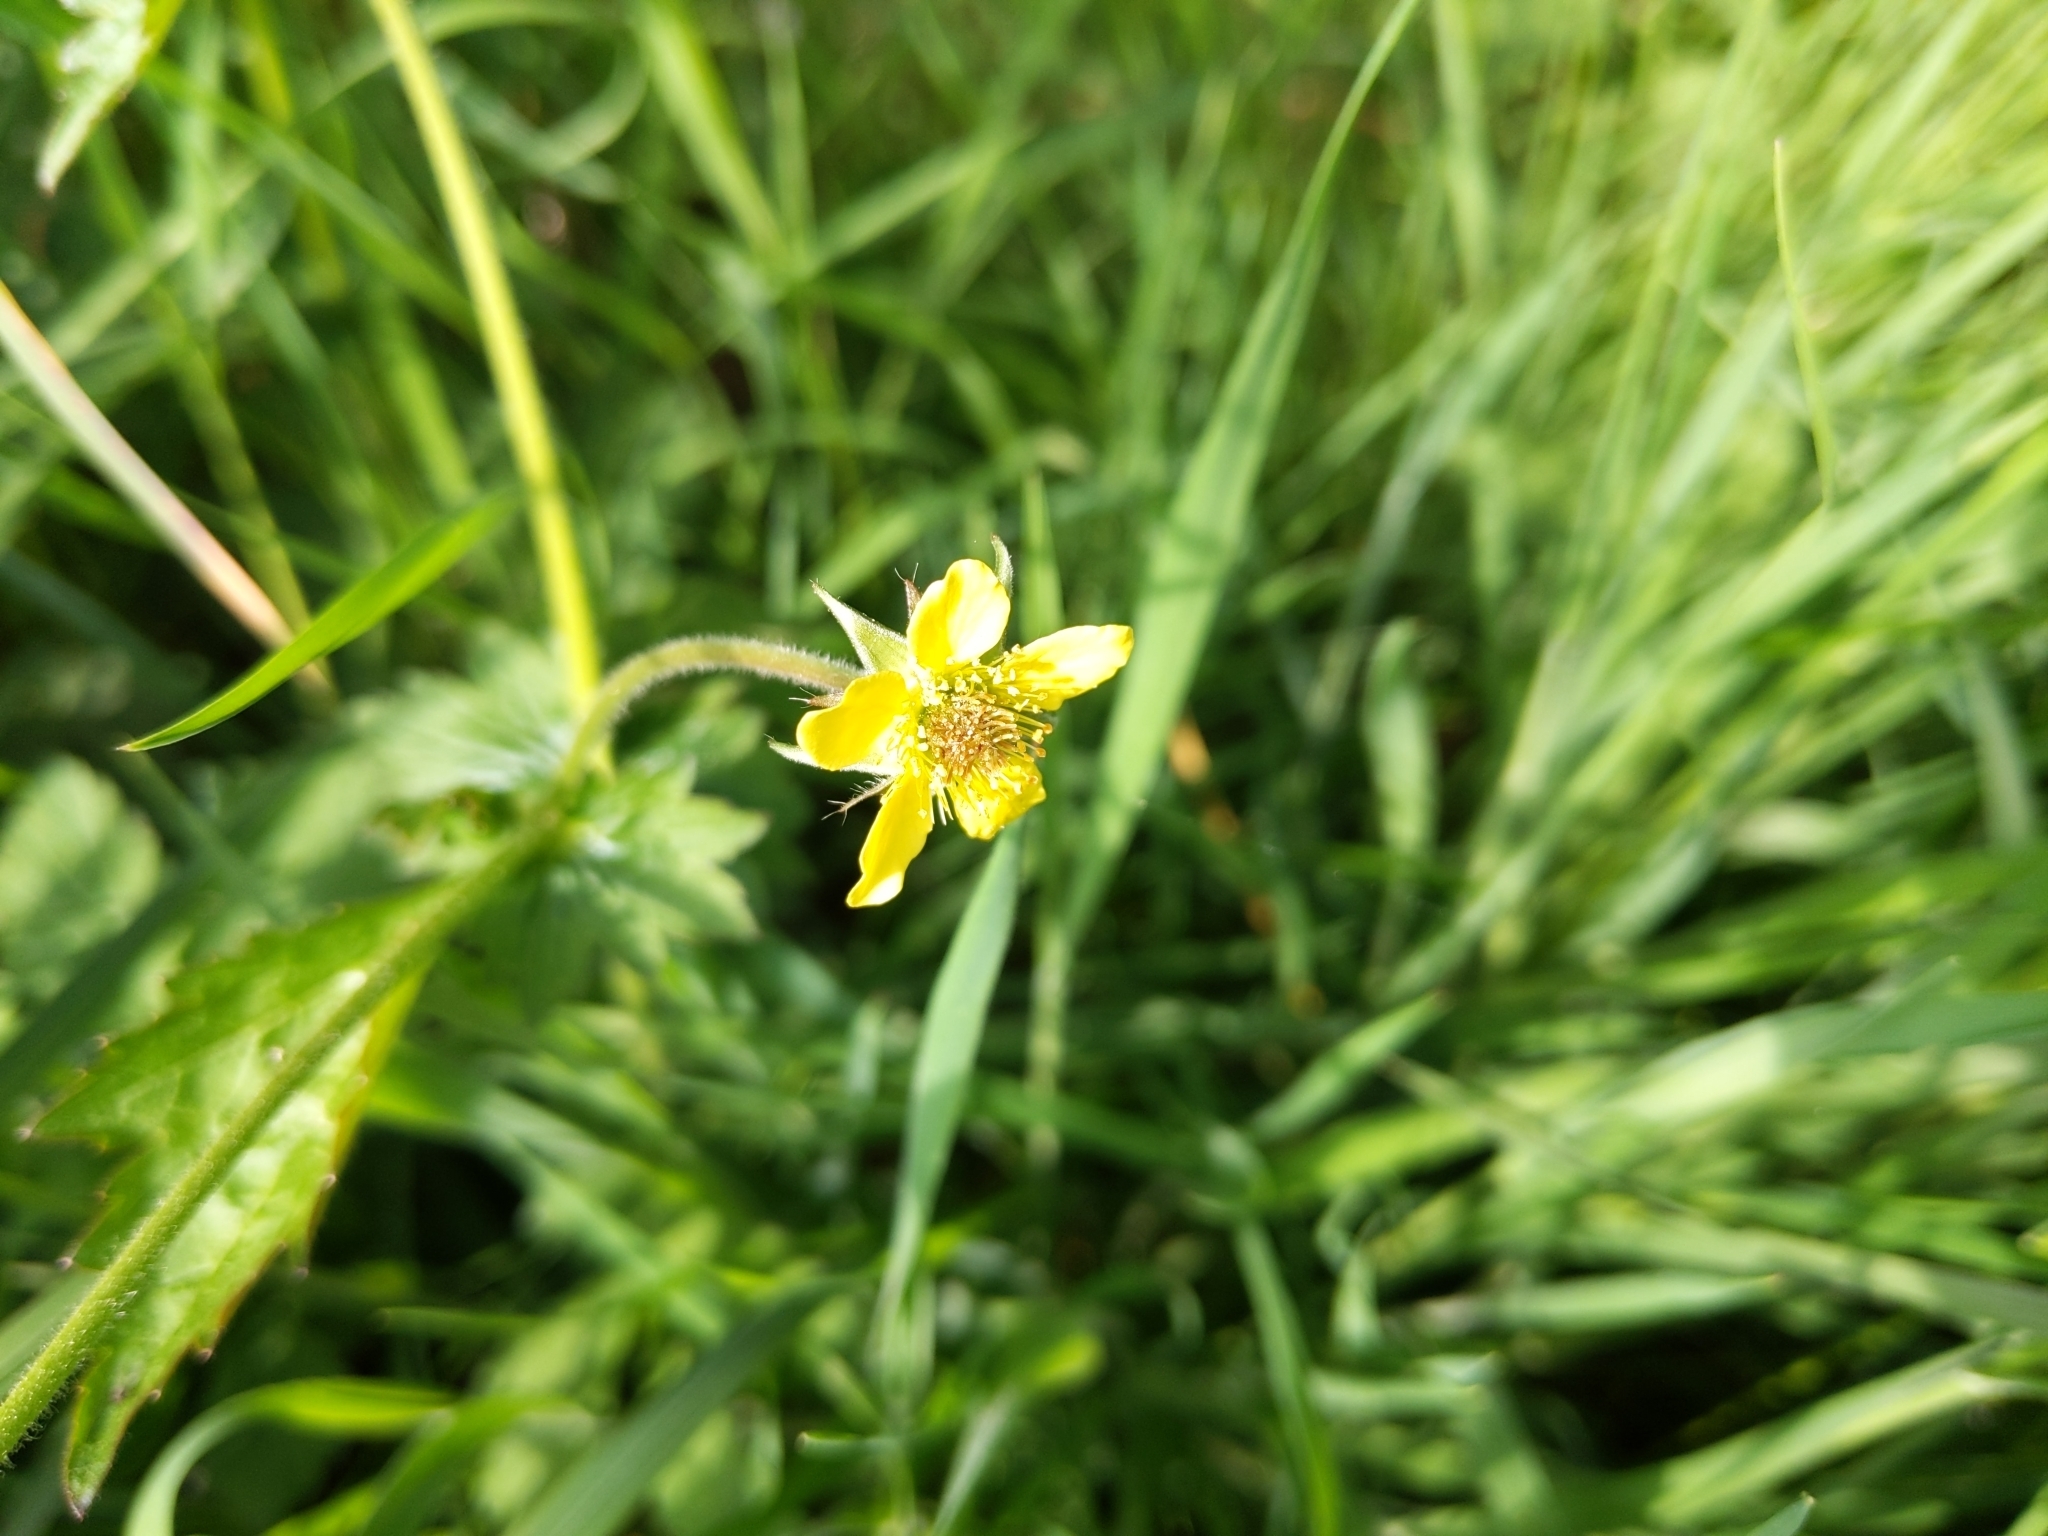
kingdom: Plantae
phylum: Tracheophyta
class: Magnoliopsida
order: Rosales
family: Rosaceae
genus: Geum
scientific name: Geum urbanum
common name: Wood avens
